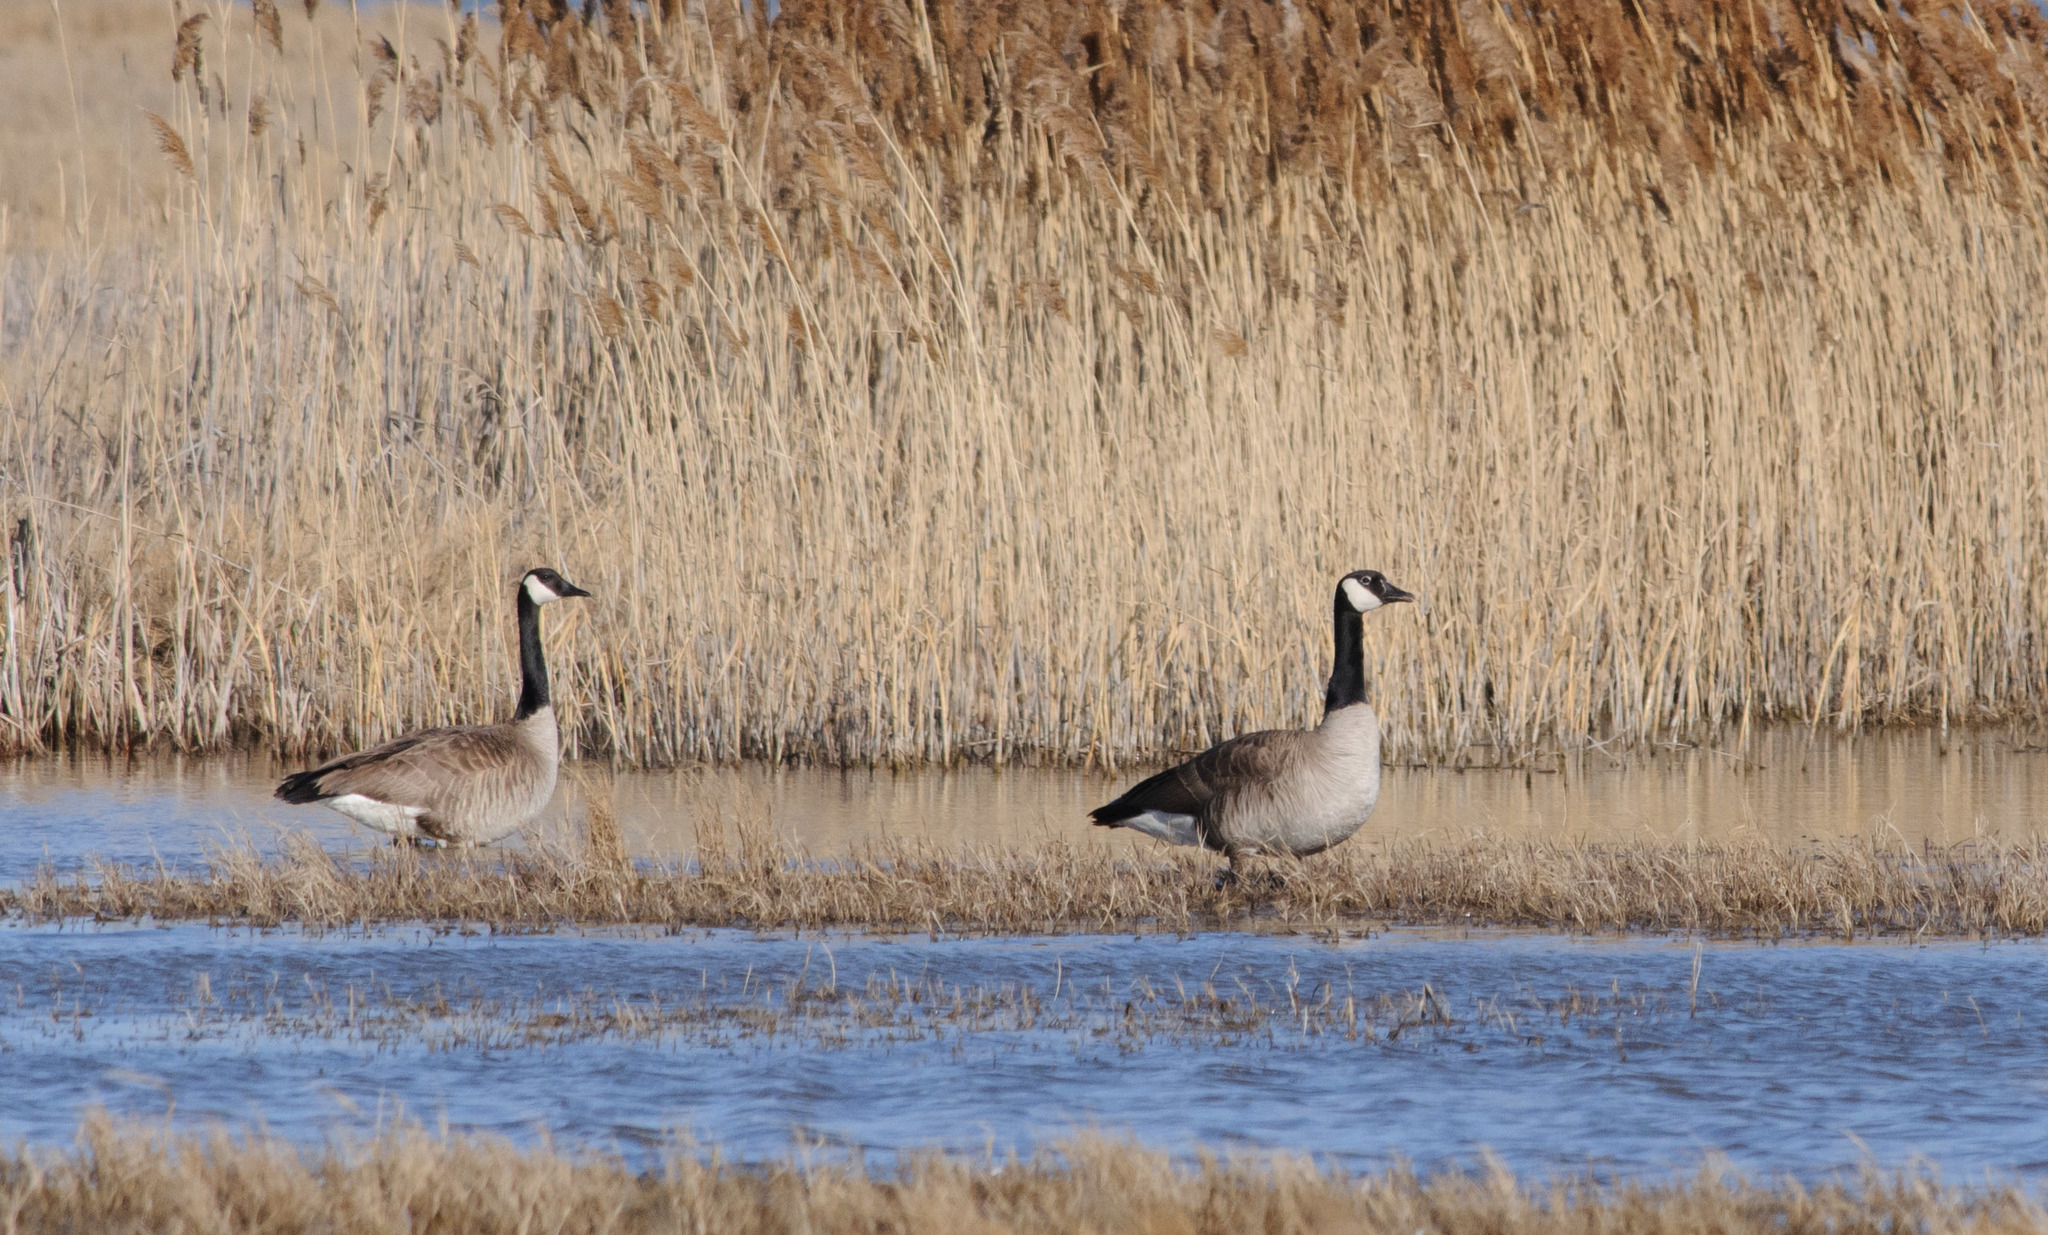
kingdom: Animalia
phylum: Chordata
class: Aves
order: Anseriformes
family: Anatidae
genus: Branta
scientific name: Branta canadensis
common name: Canada goose
